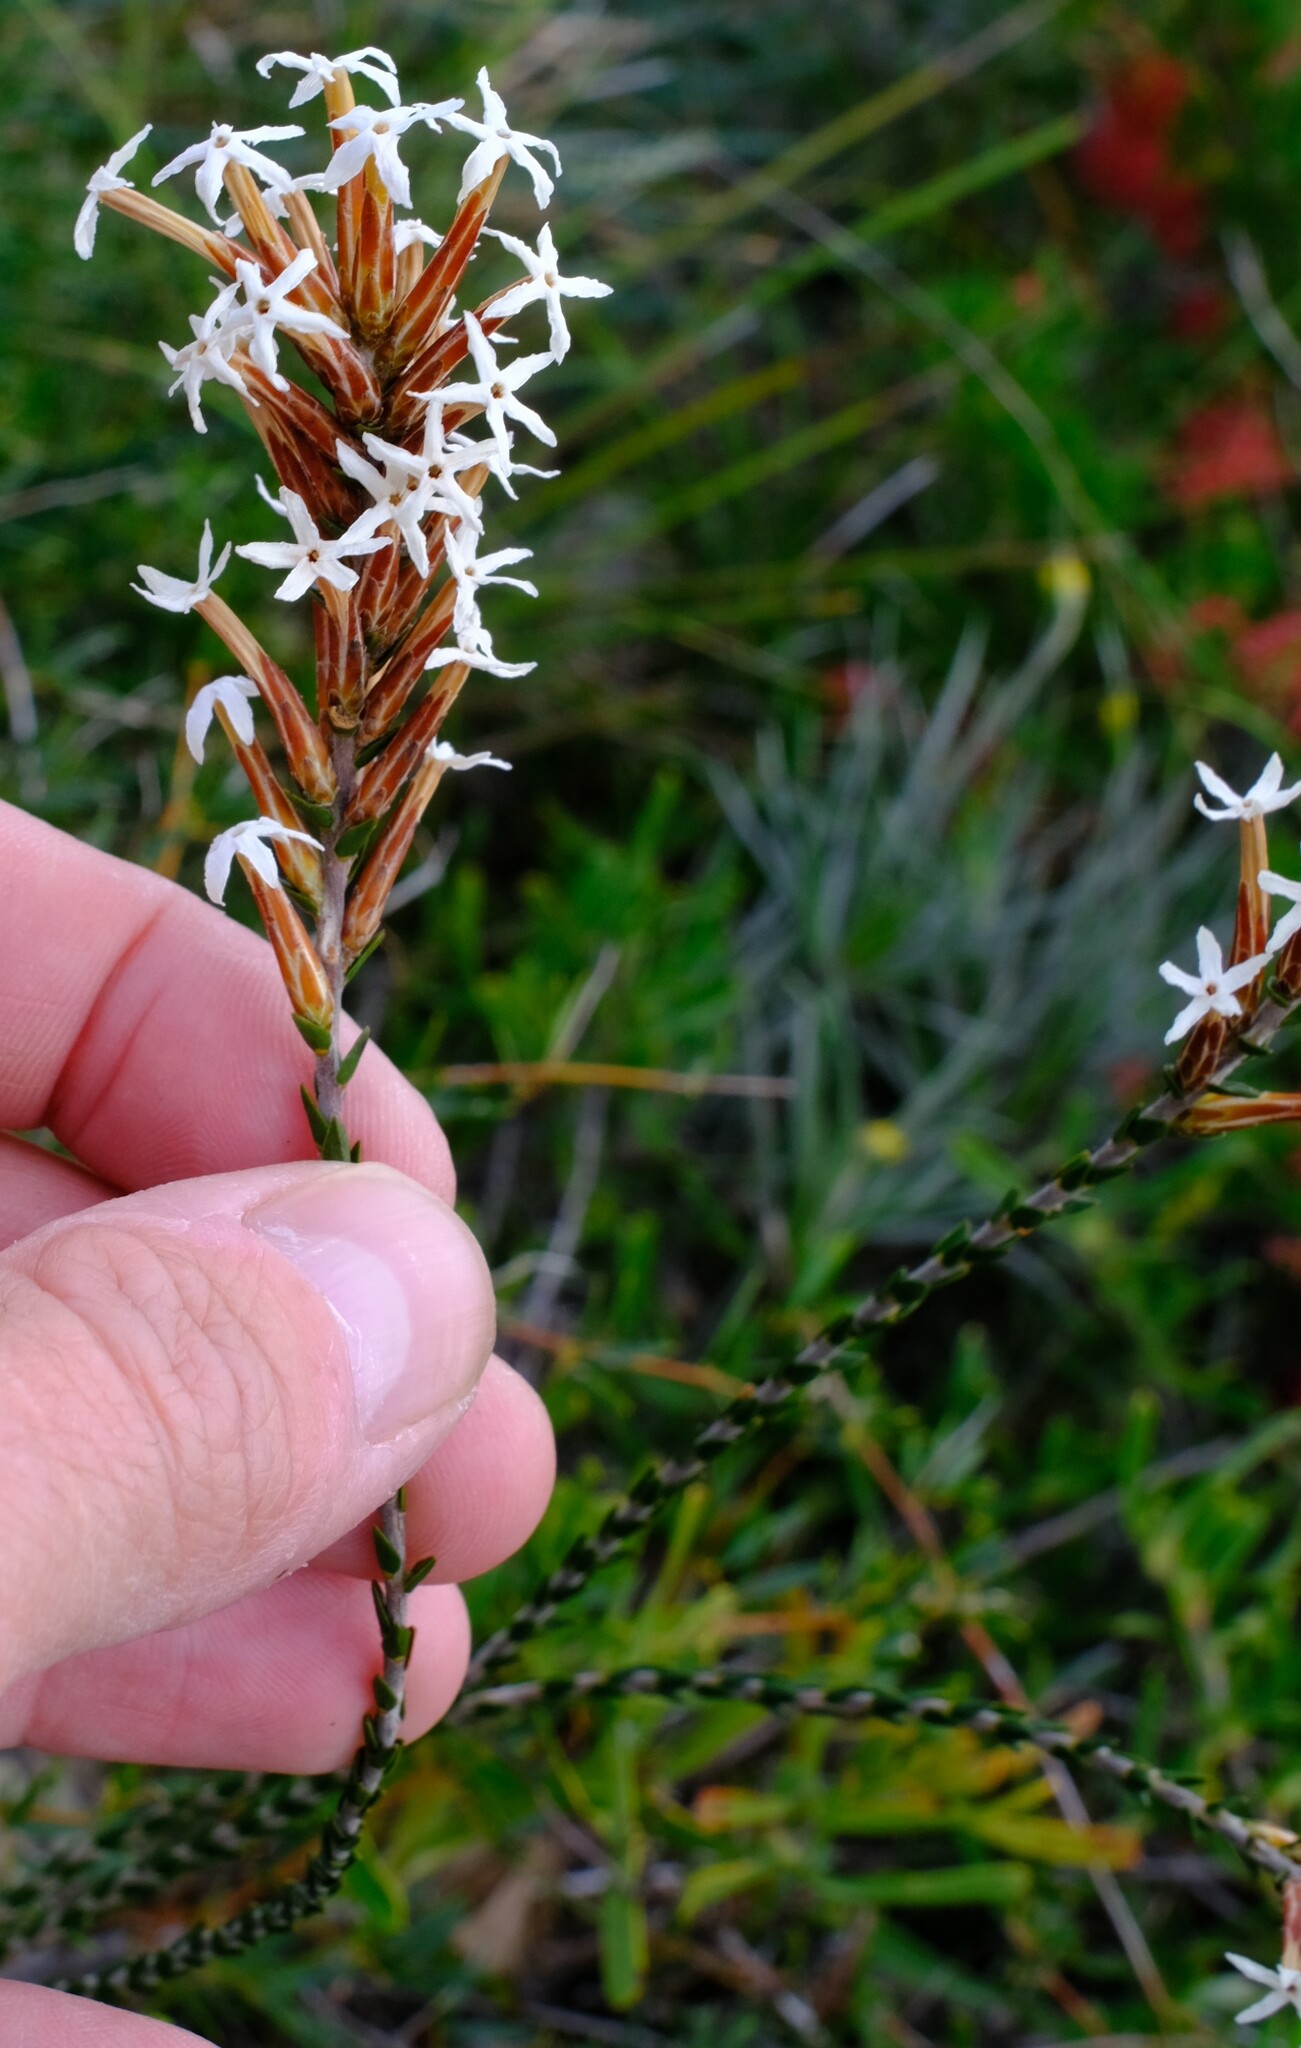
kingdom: Plantae
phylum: Tracheophyta
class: Magnoliopsida
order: Ericales
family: Ericaceae
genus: Lysinema
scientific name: Lysinema pentapetalum
